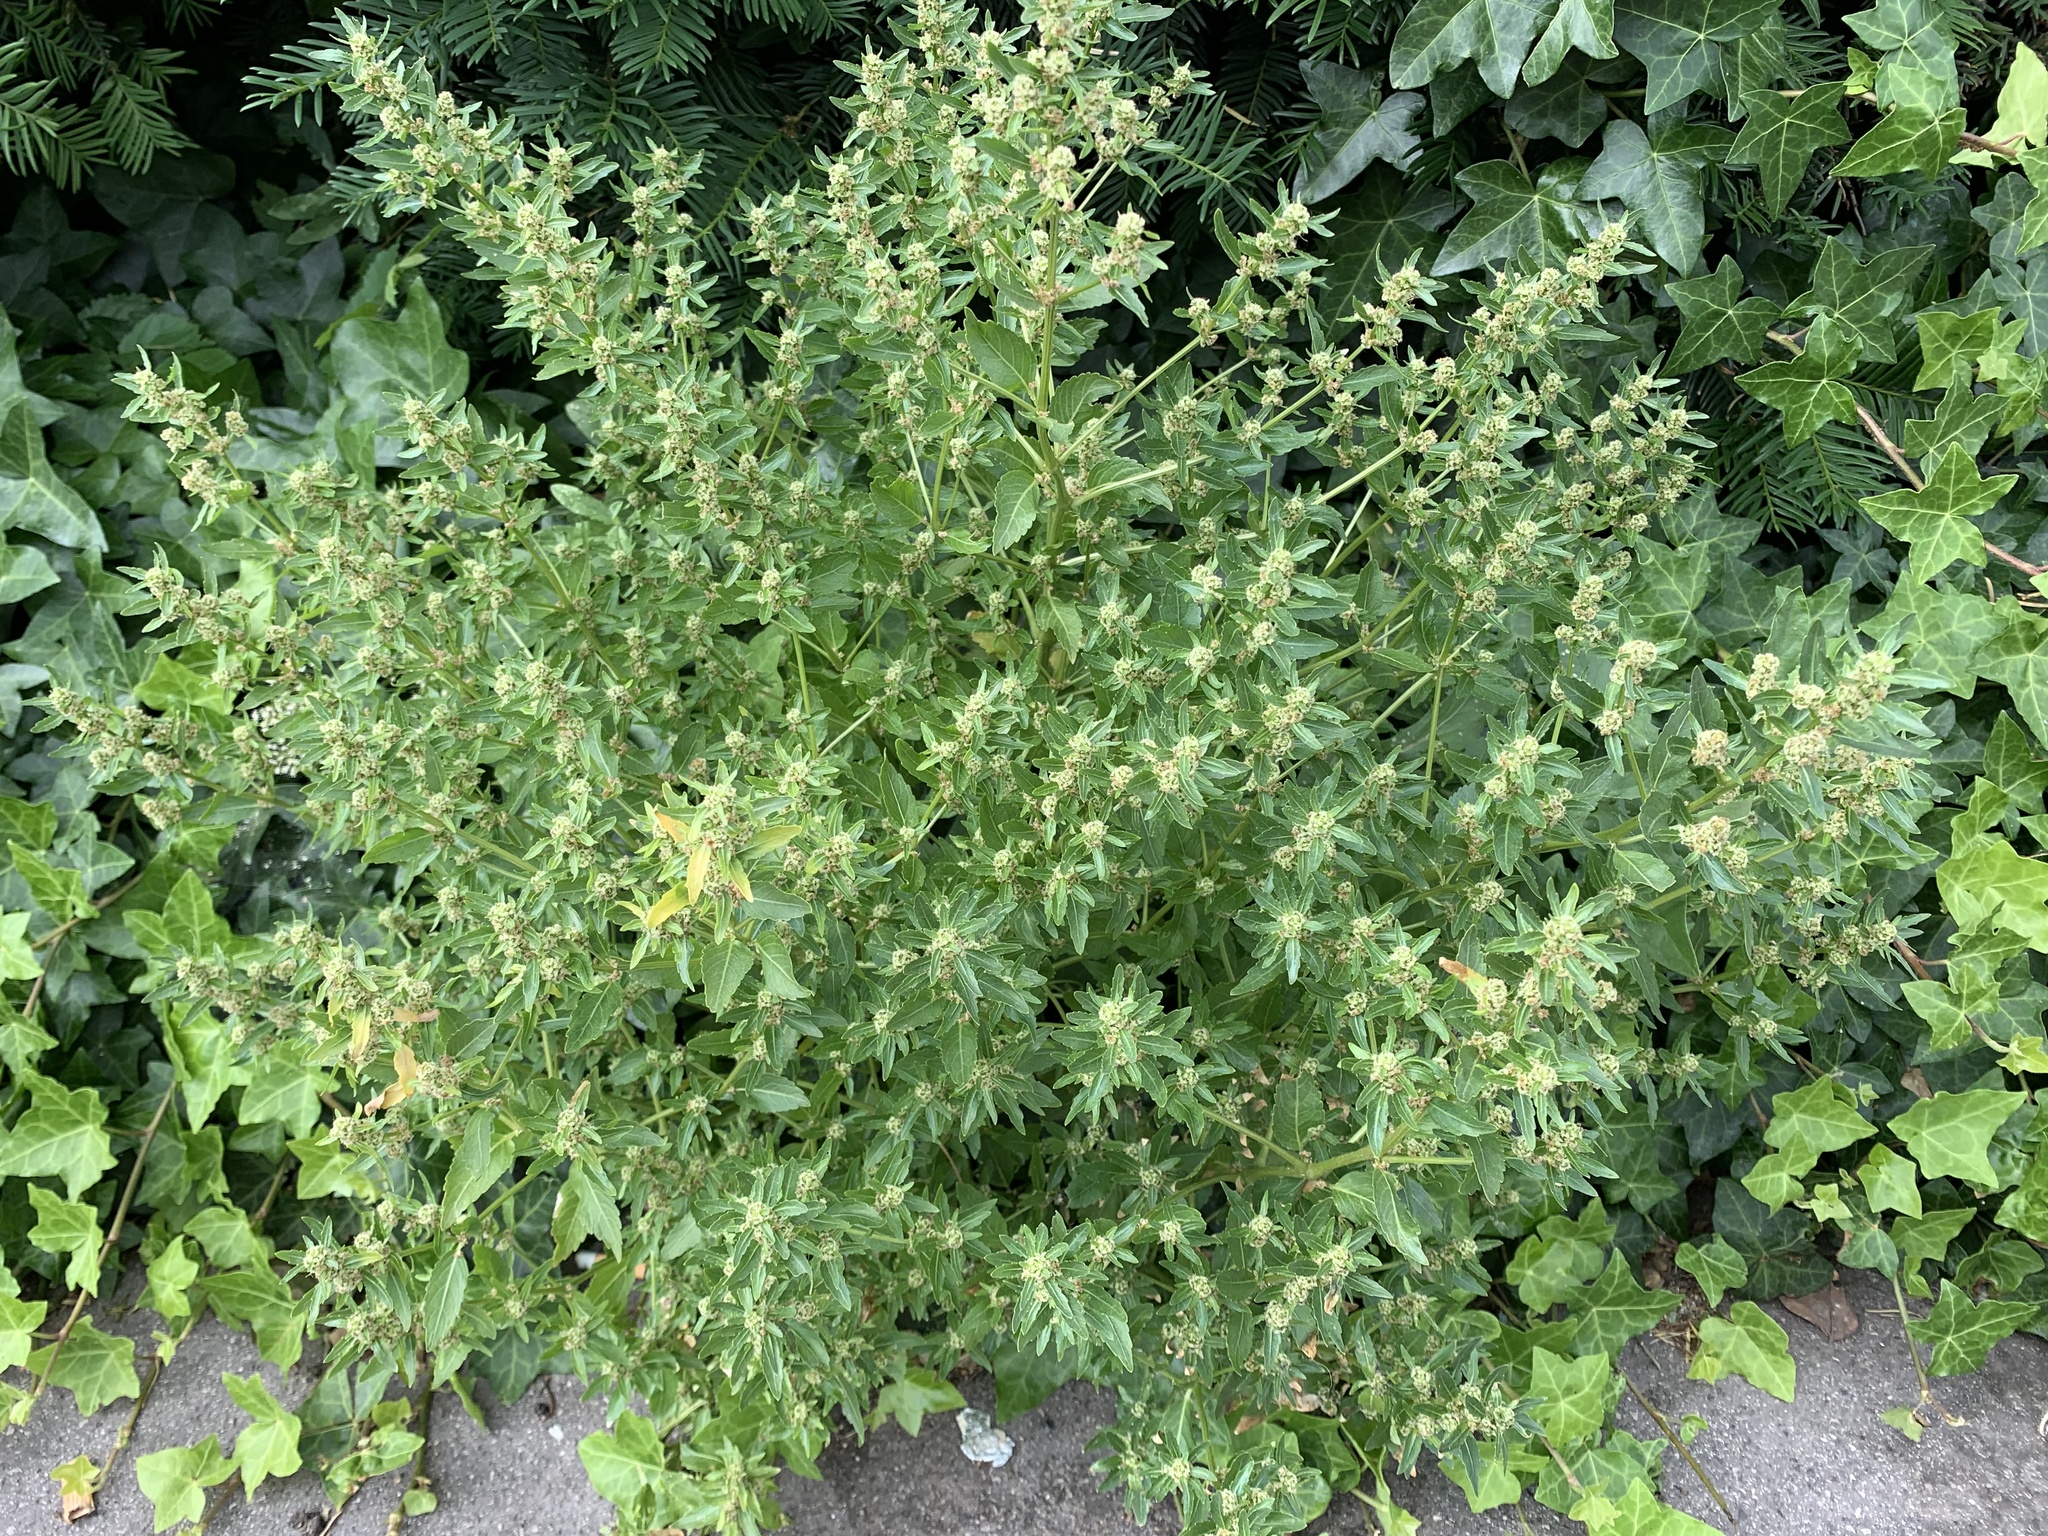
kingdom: Plantae
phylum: Tracheophyta
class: Magnoliopsida
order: Caryophyllales
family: Amaranthaceae
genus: Oxybasis
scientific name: Oxybasis glauca
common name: Glaucous goosefoot
